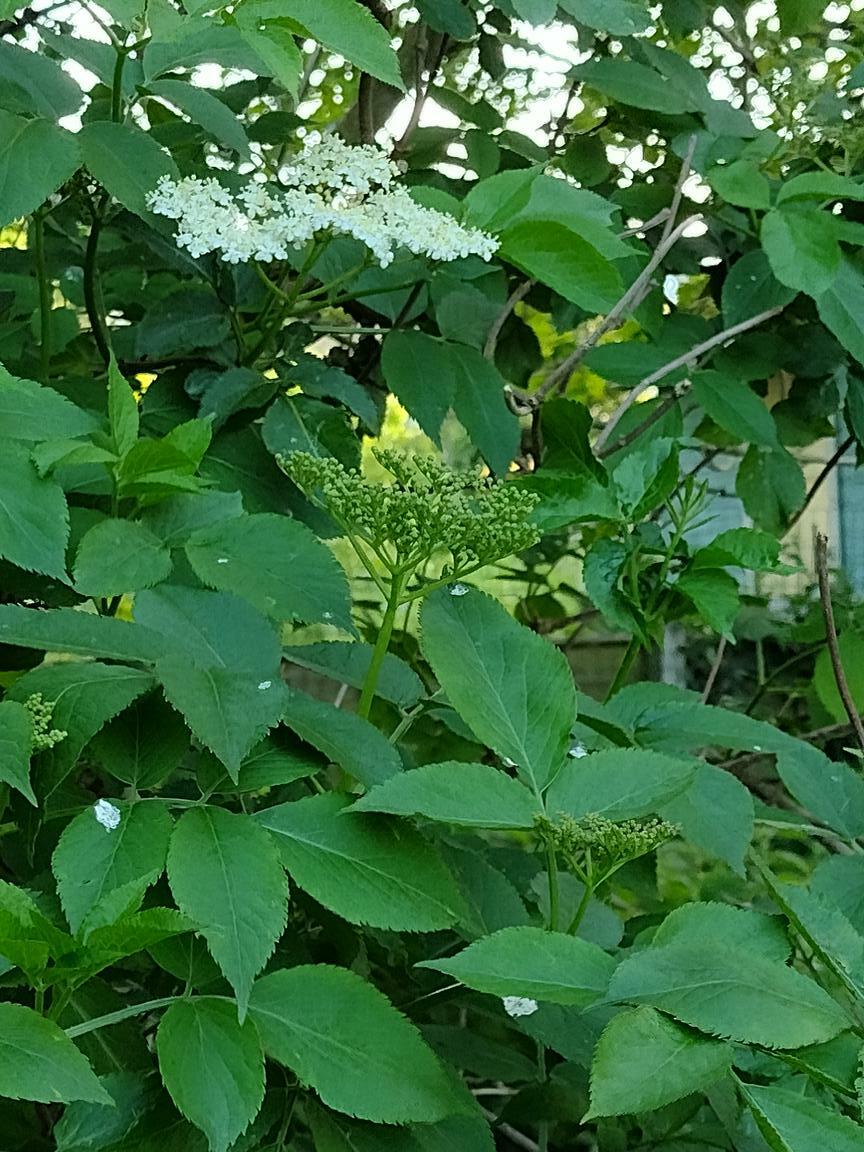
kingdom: Plantae
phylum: Tracheophyta
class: Magnoliopsida
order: Dipsacales
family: Viburnaceae
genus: Sambucus
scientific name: Sambucus nigra
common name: Elder
